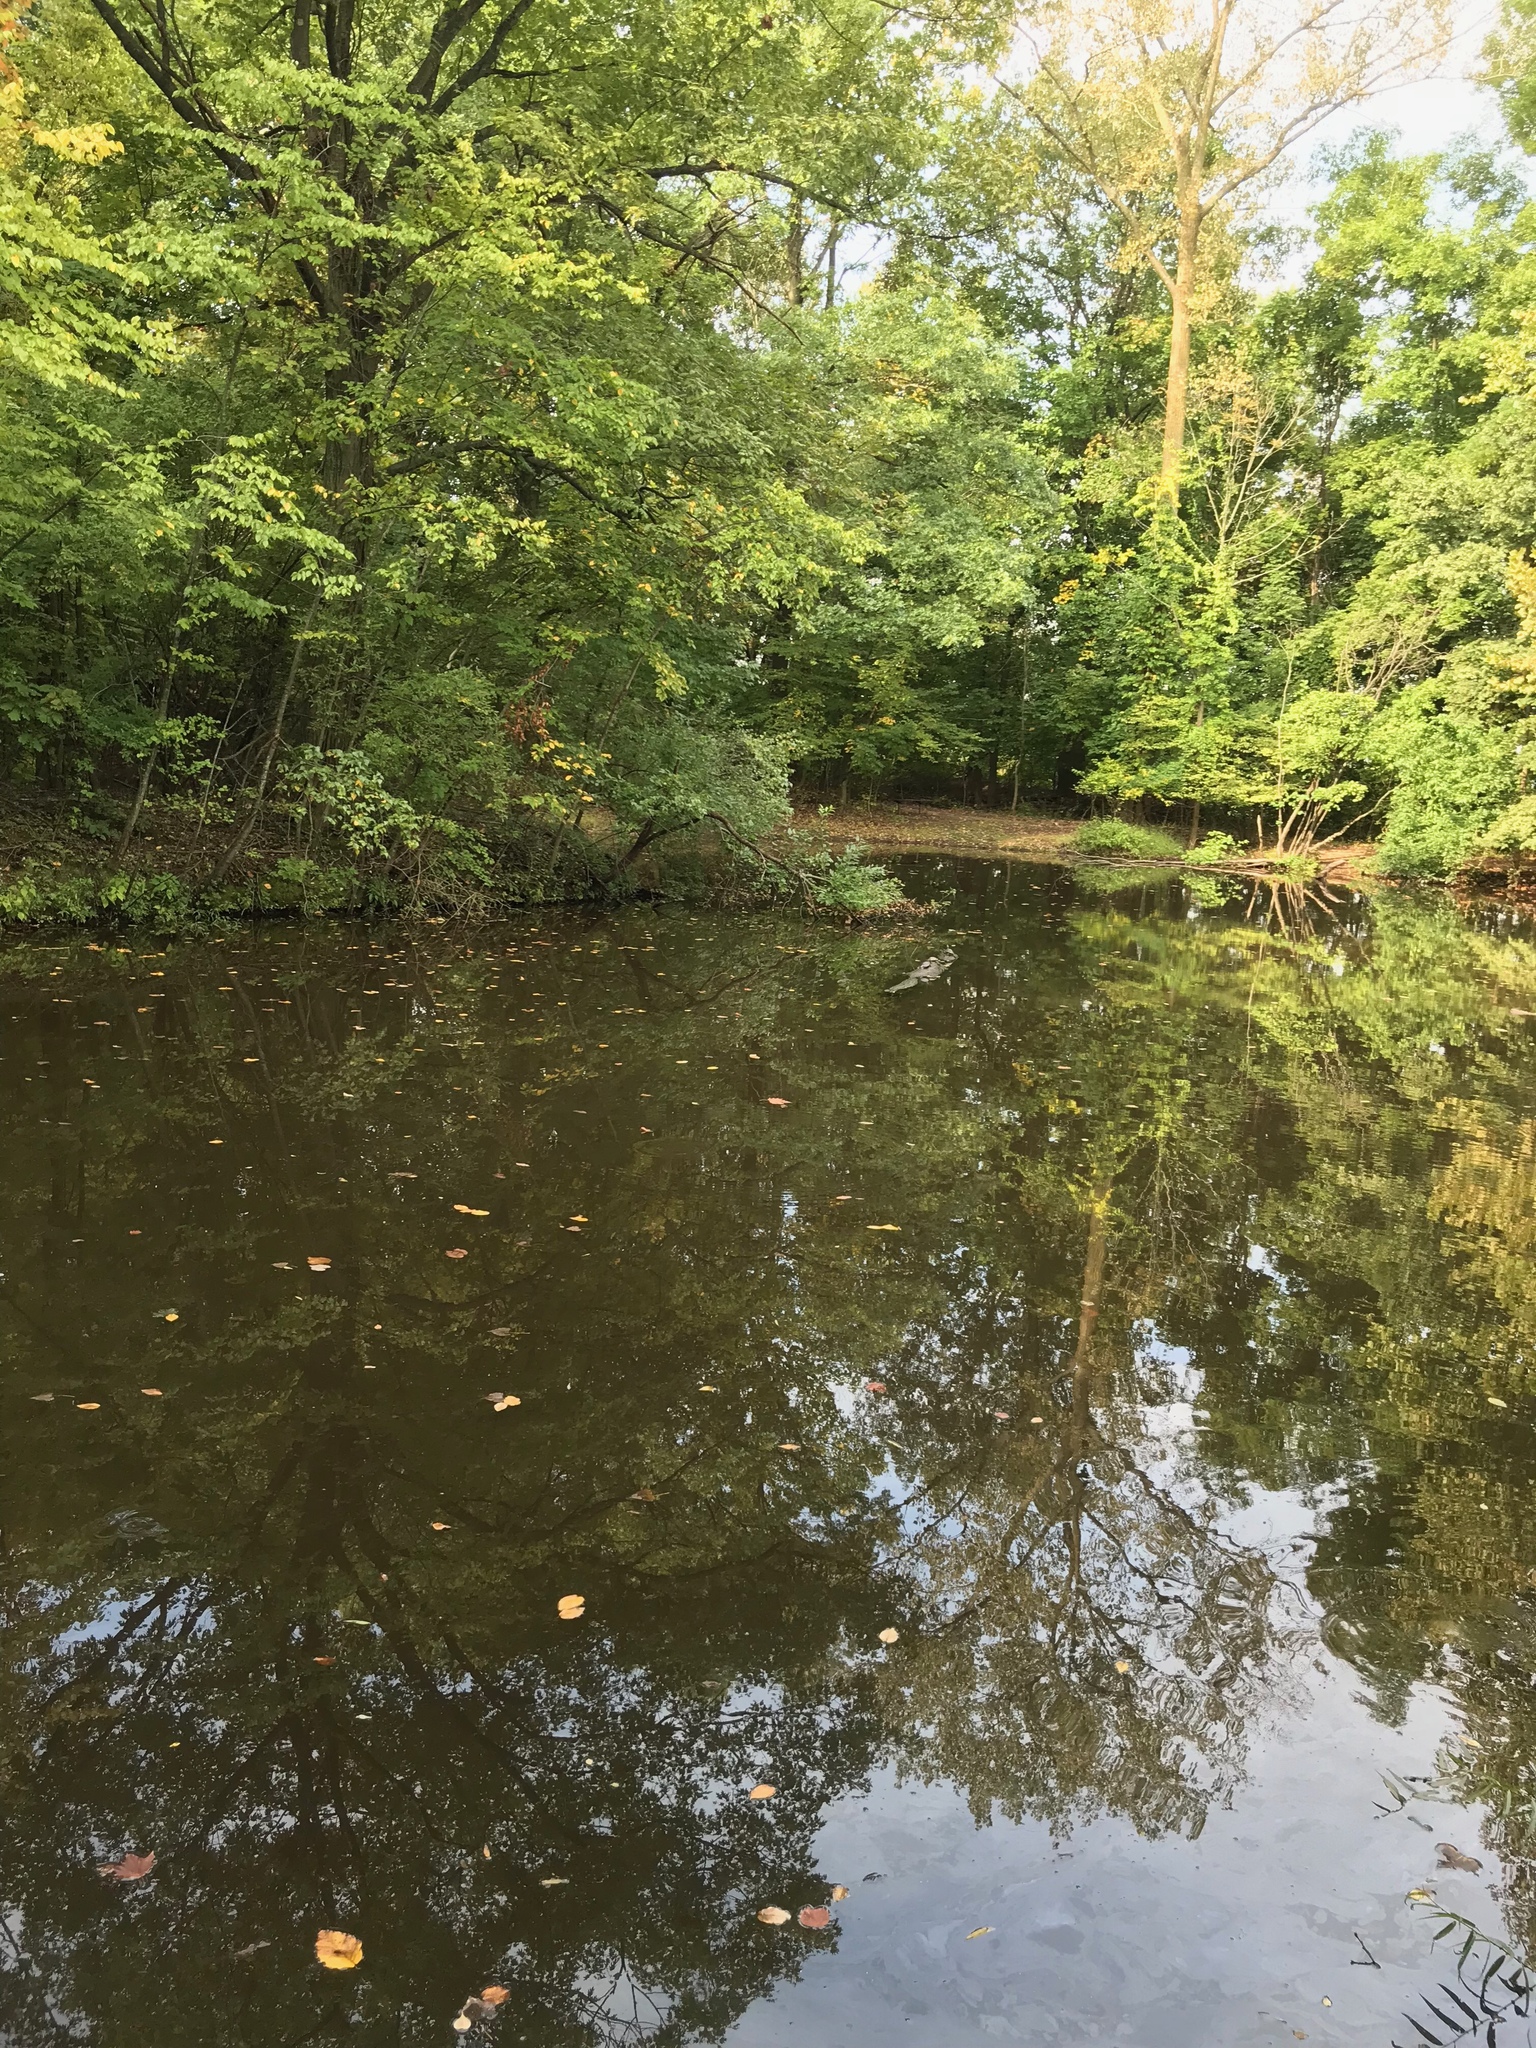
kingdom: Animalia
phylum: Chordata
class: Amphibia
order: Anura
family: Ranidae
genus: Lithobates
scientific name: Lithobates catesbeianus
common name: American bullfrog
